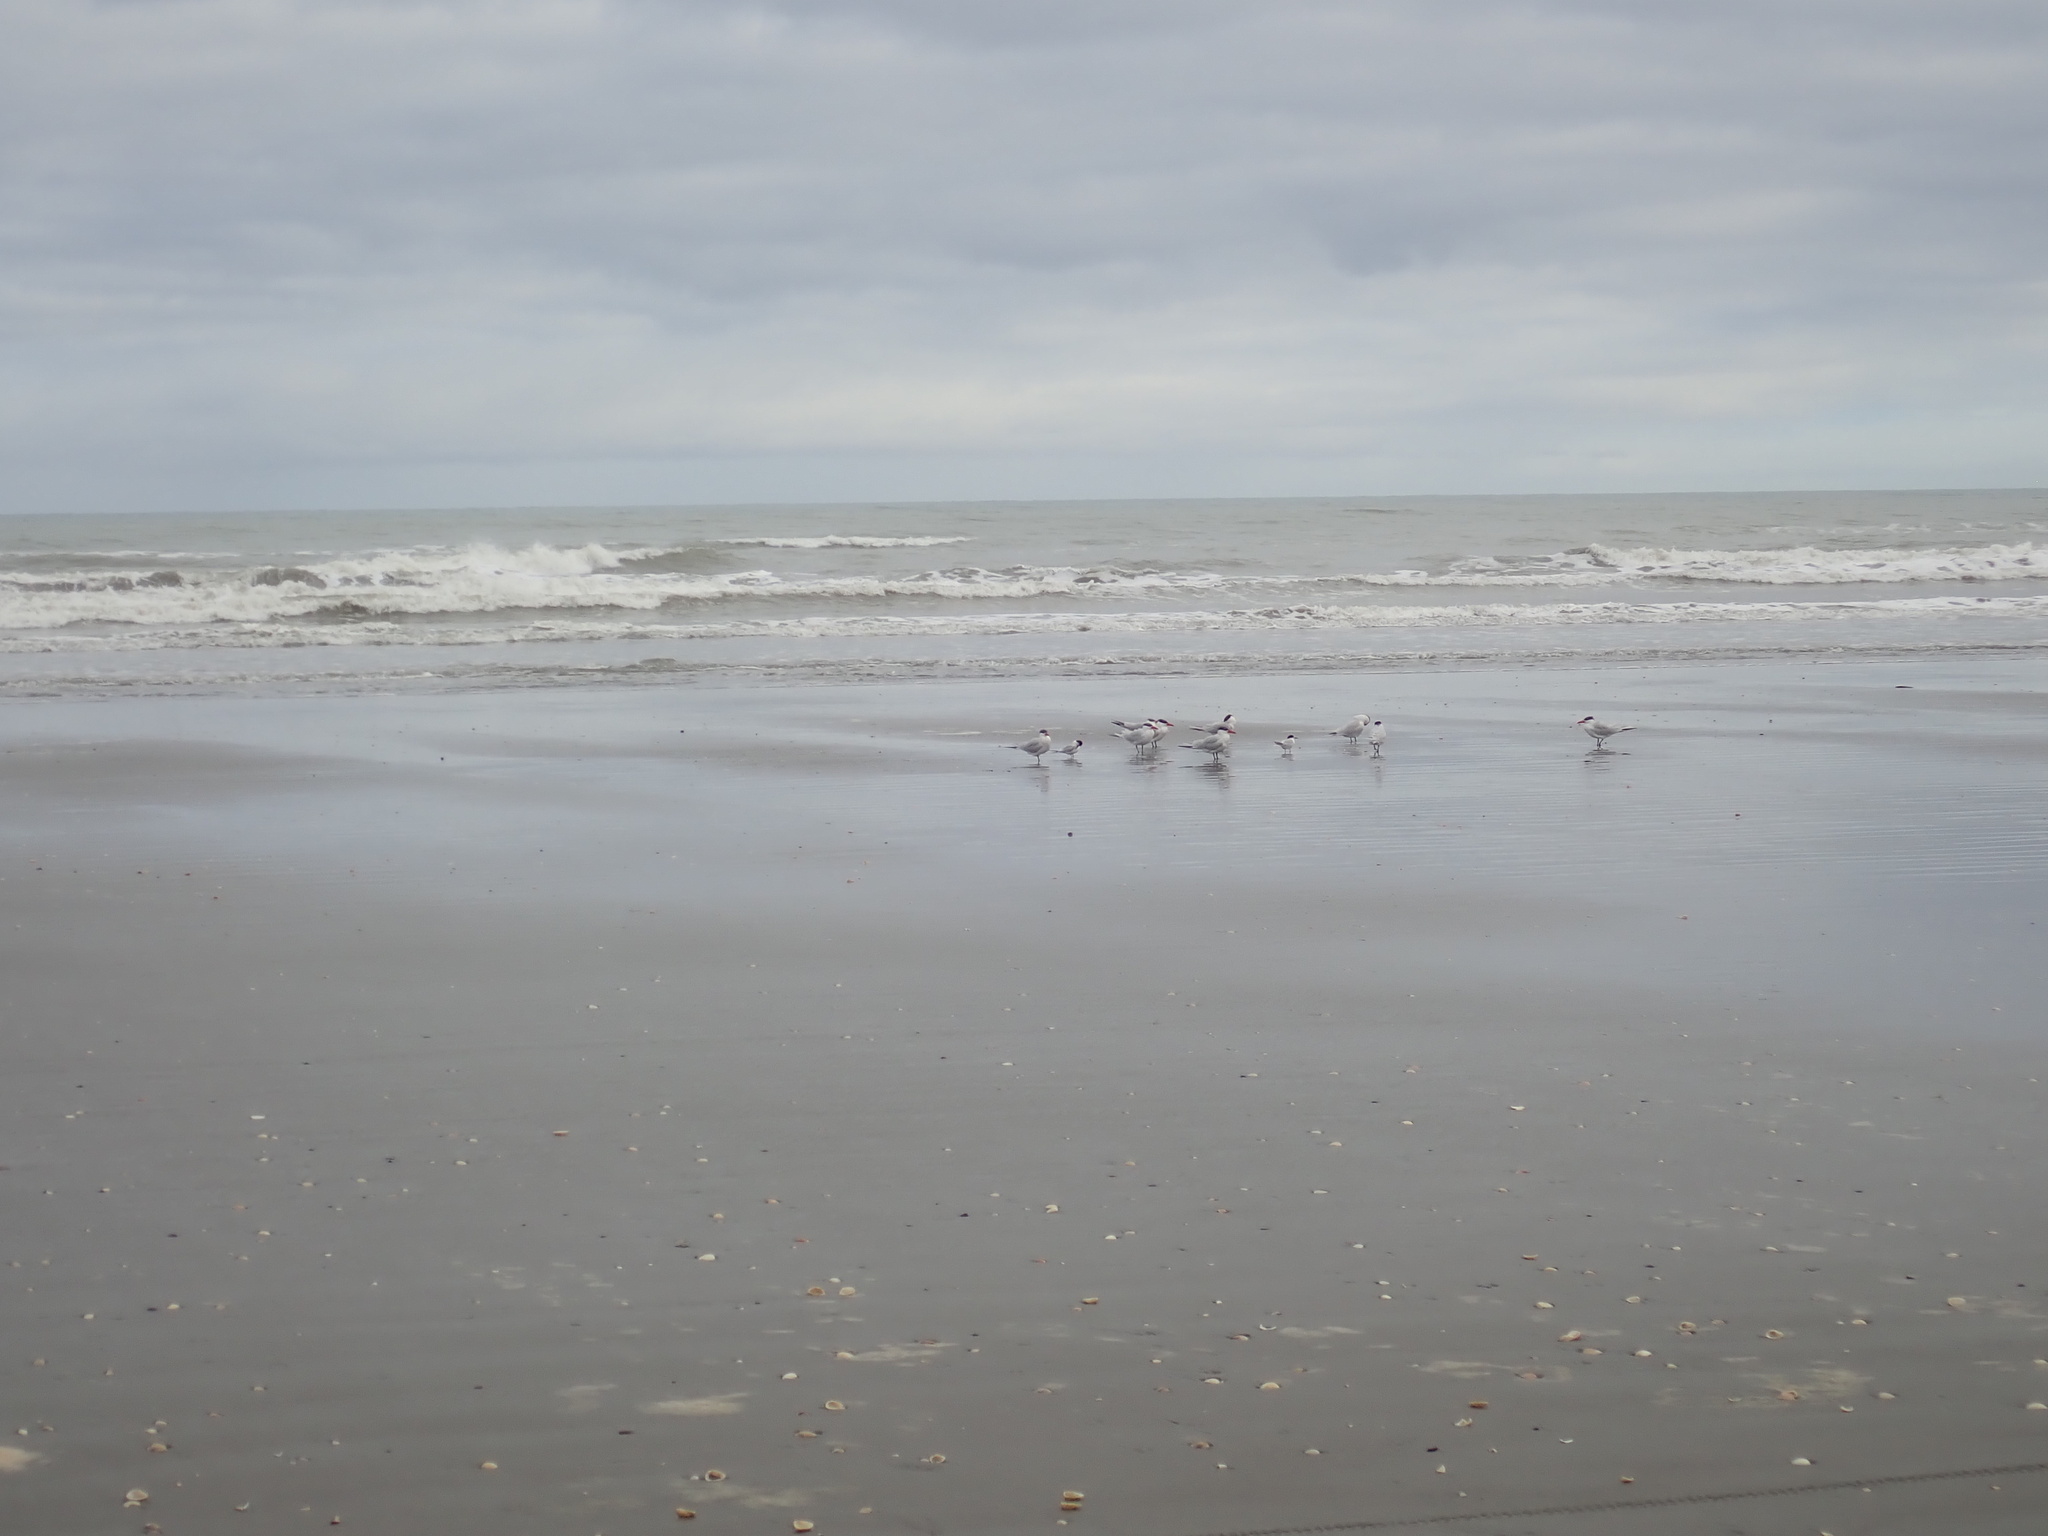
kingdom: Animalia
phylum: Chordata
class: Aves
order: Charadriiformes
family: Laridae
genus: Hydroprogne
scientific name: Hydroprogne caspia
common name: Caspian tern
